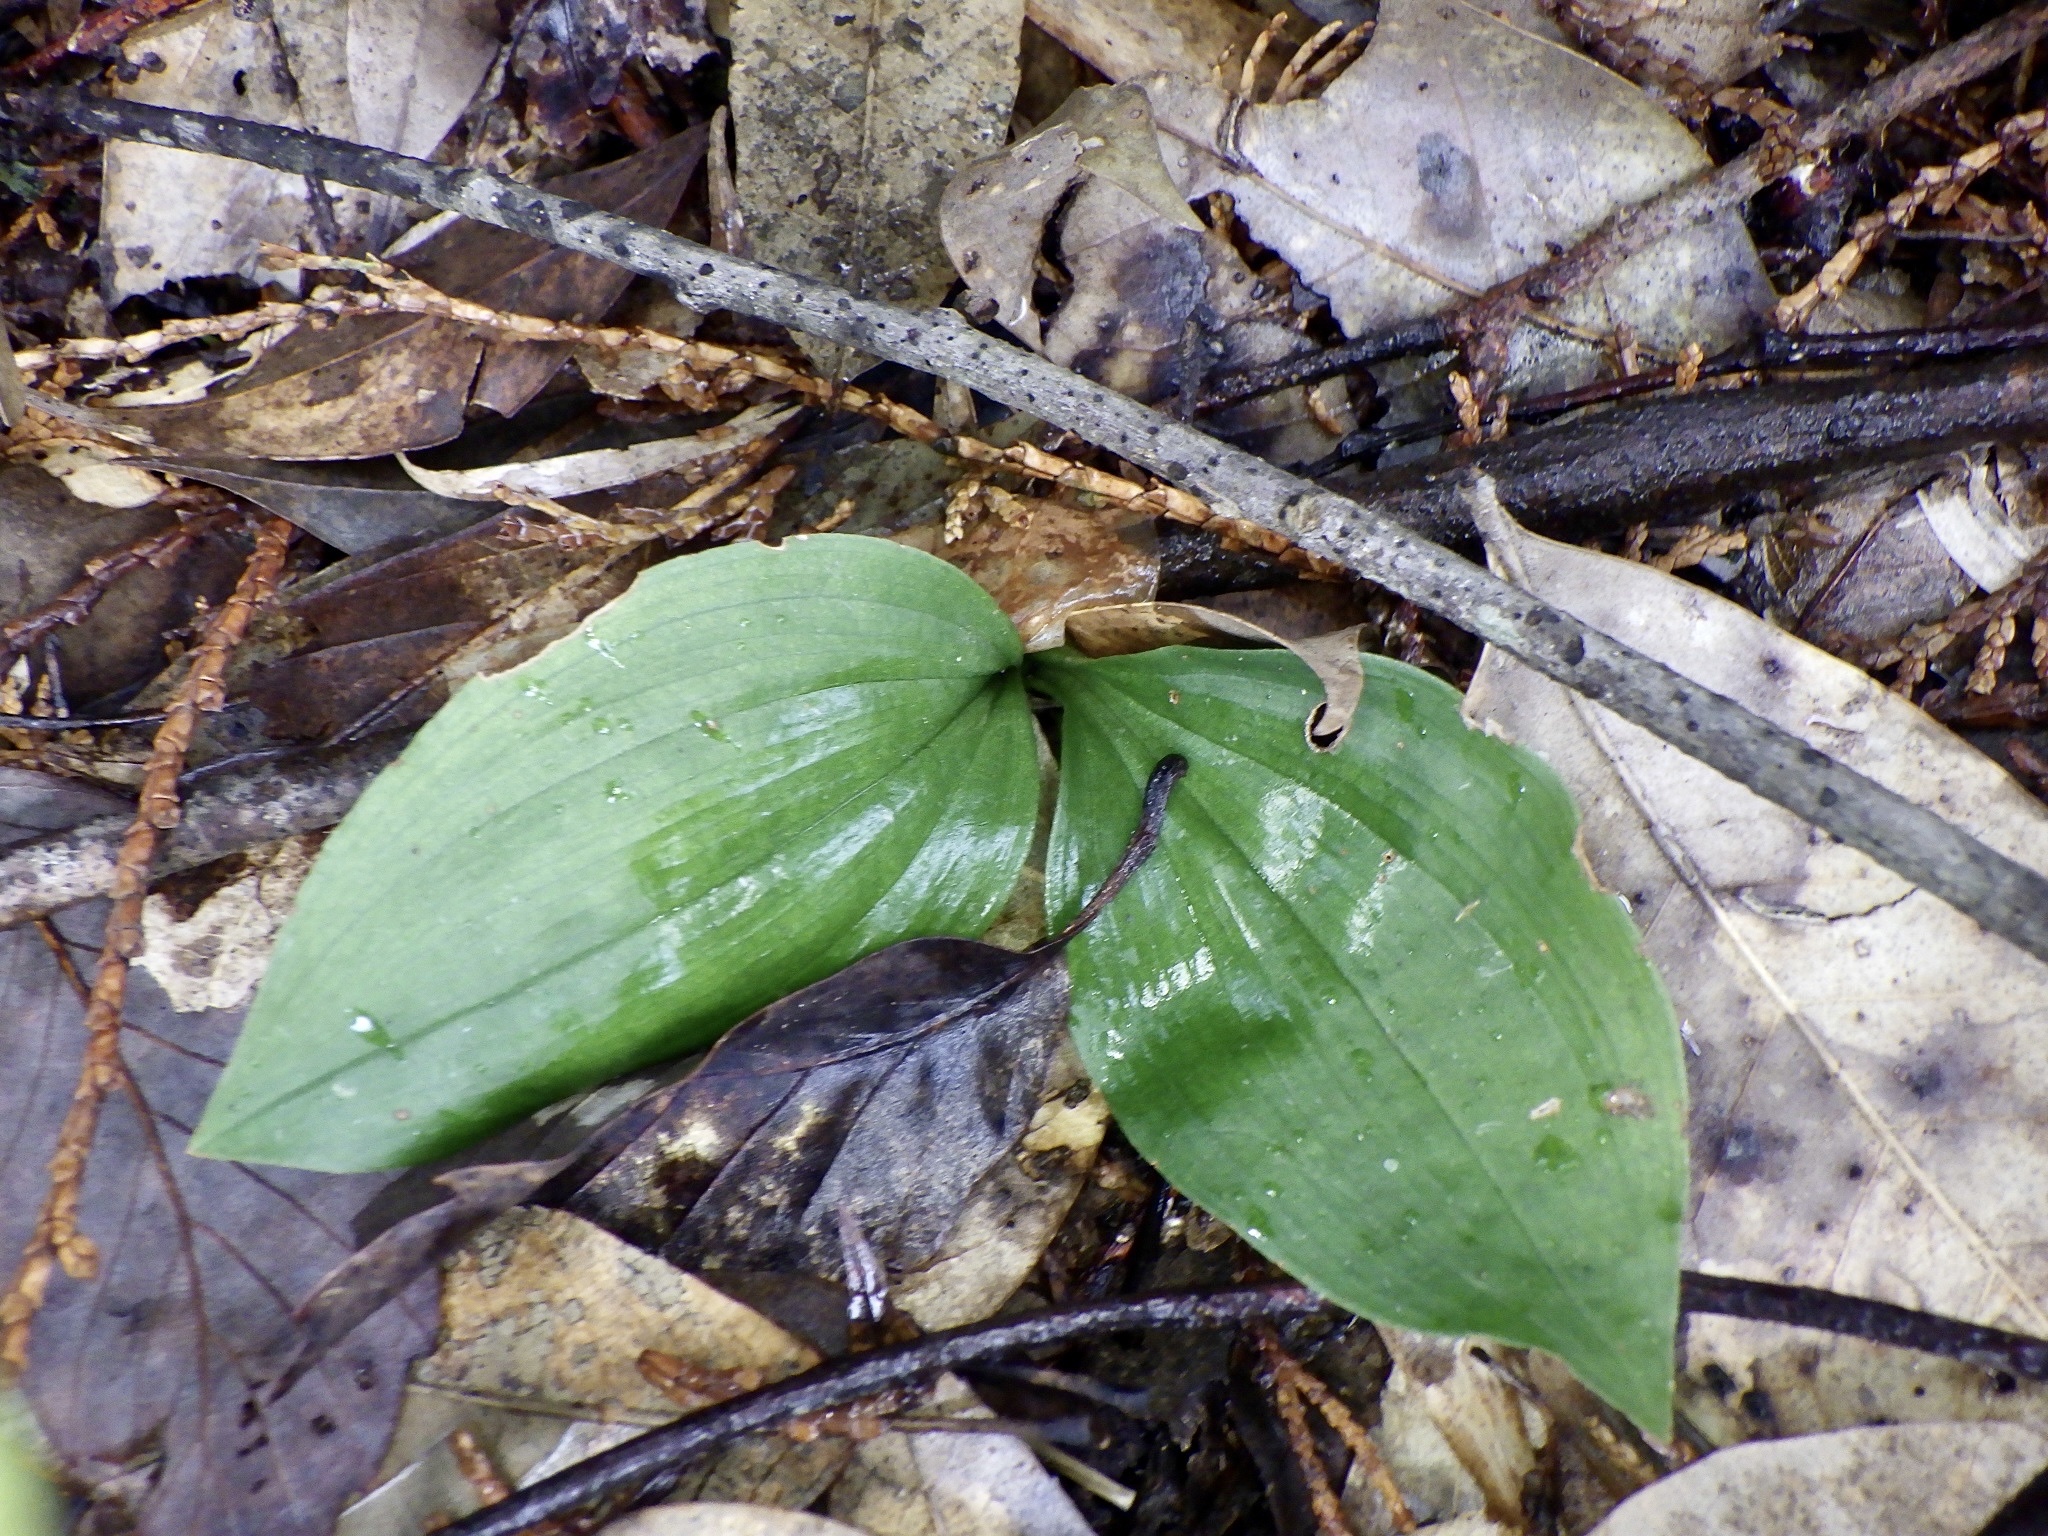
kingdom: Plantae
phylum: Tracheophyta
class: Liliopsida
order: Asparagales
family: Orchidaceae
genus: Liparis
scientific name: Liparis nervosa
